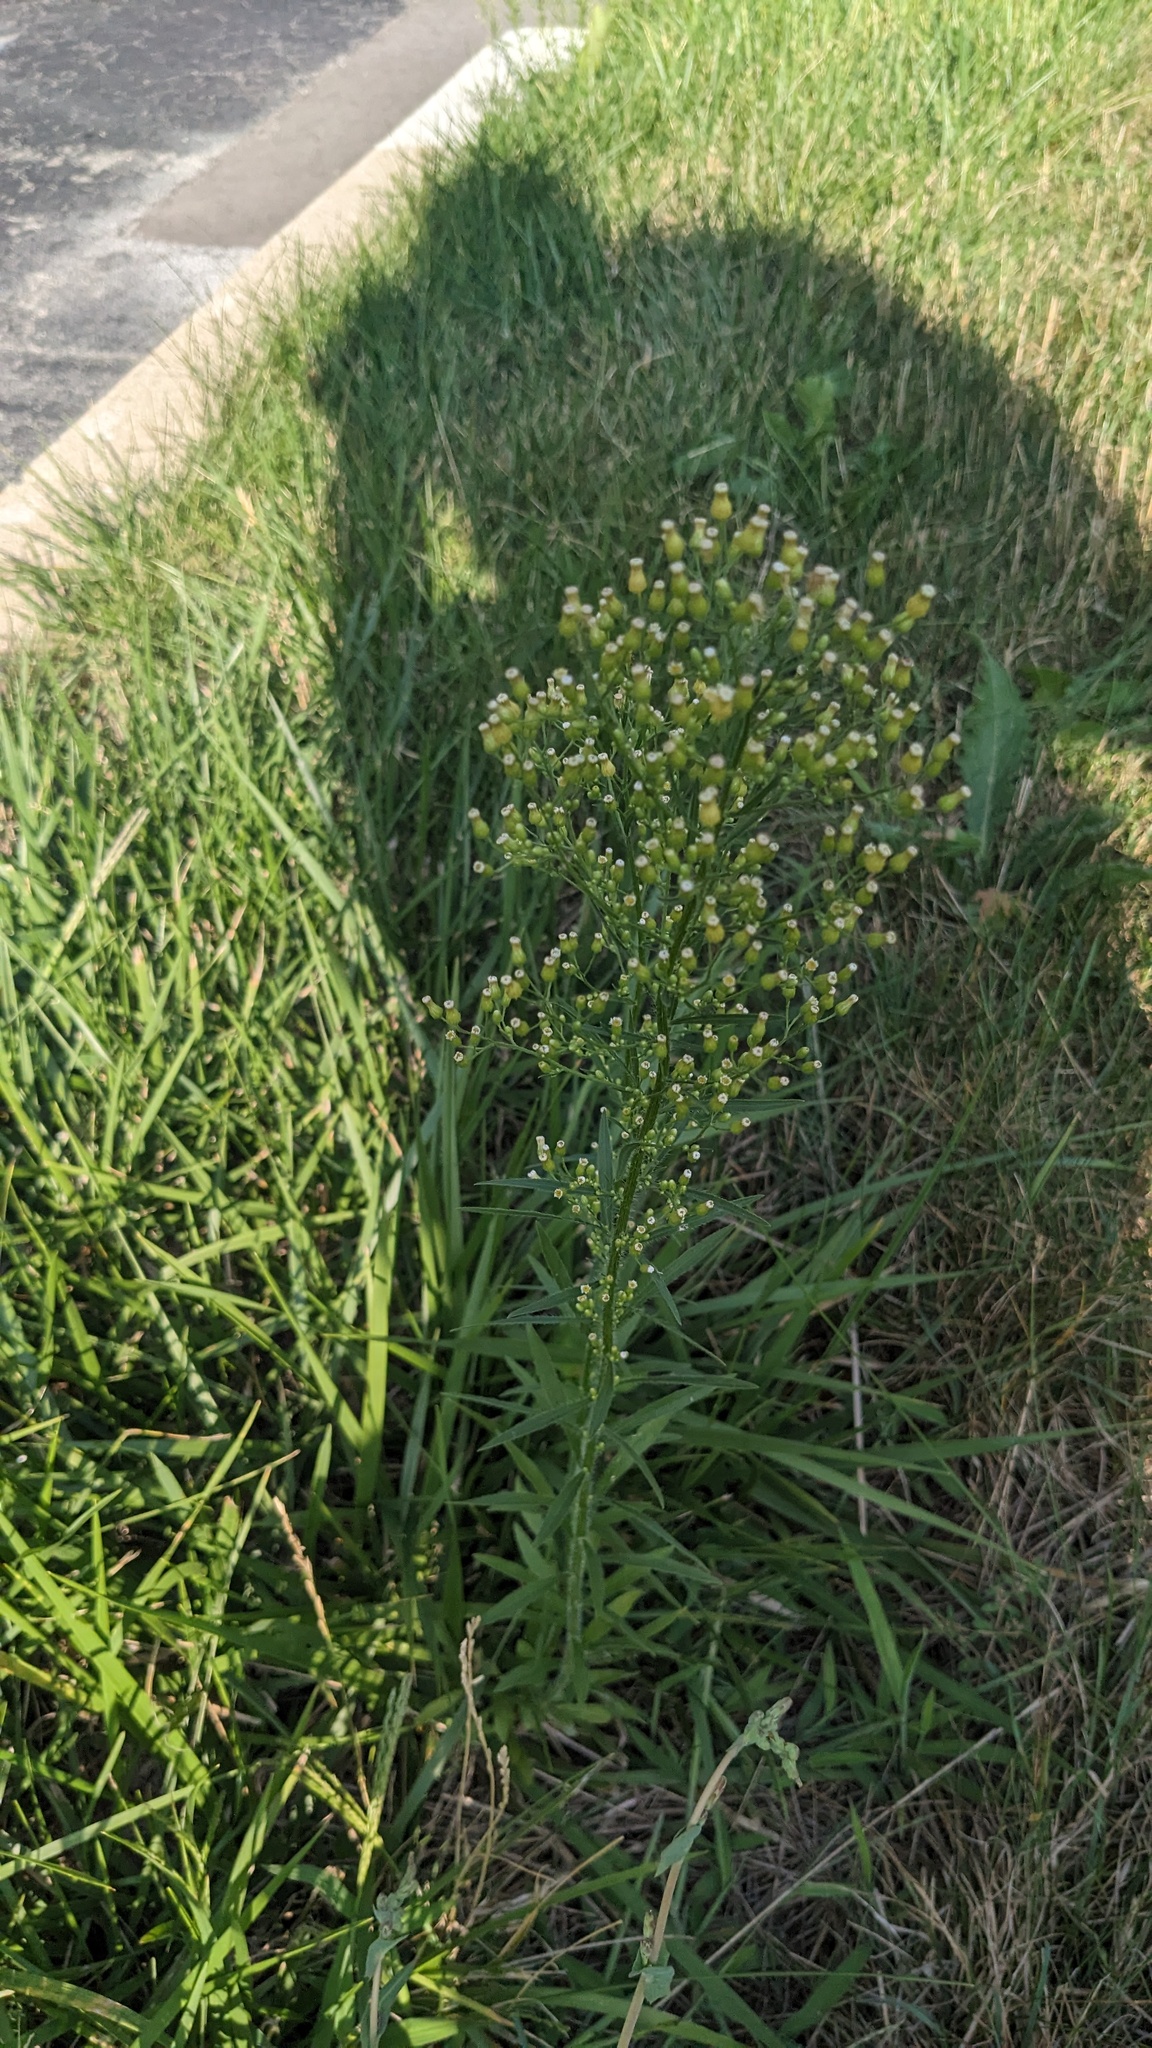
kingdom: Plantae
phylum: Tracheophyta
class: Magnoliopsida
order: Asterales
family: Asteraceae
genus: Erigeron
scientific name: Erigeron canadensis
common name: Canadian fleabane
